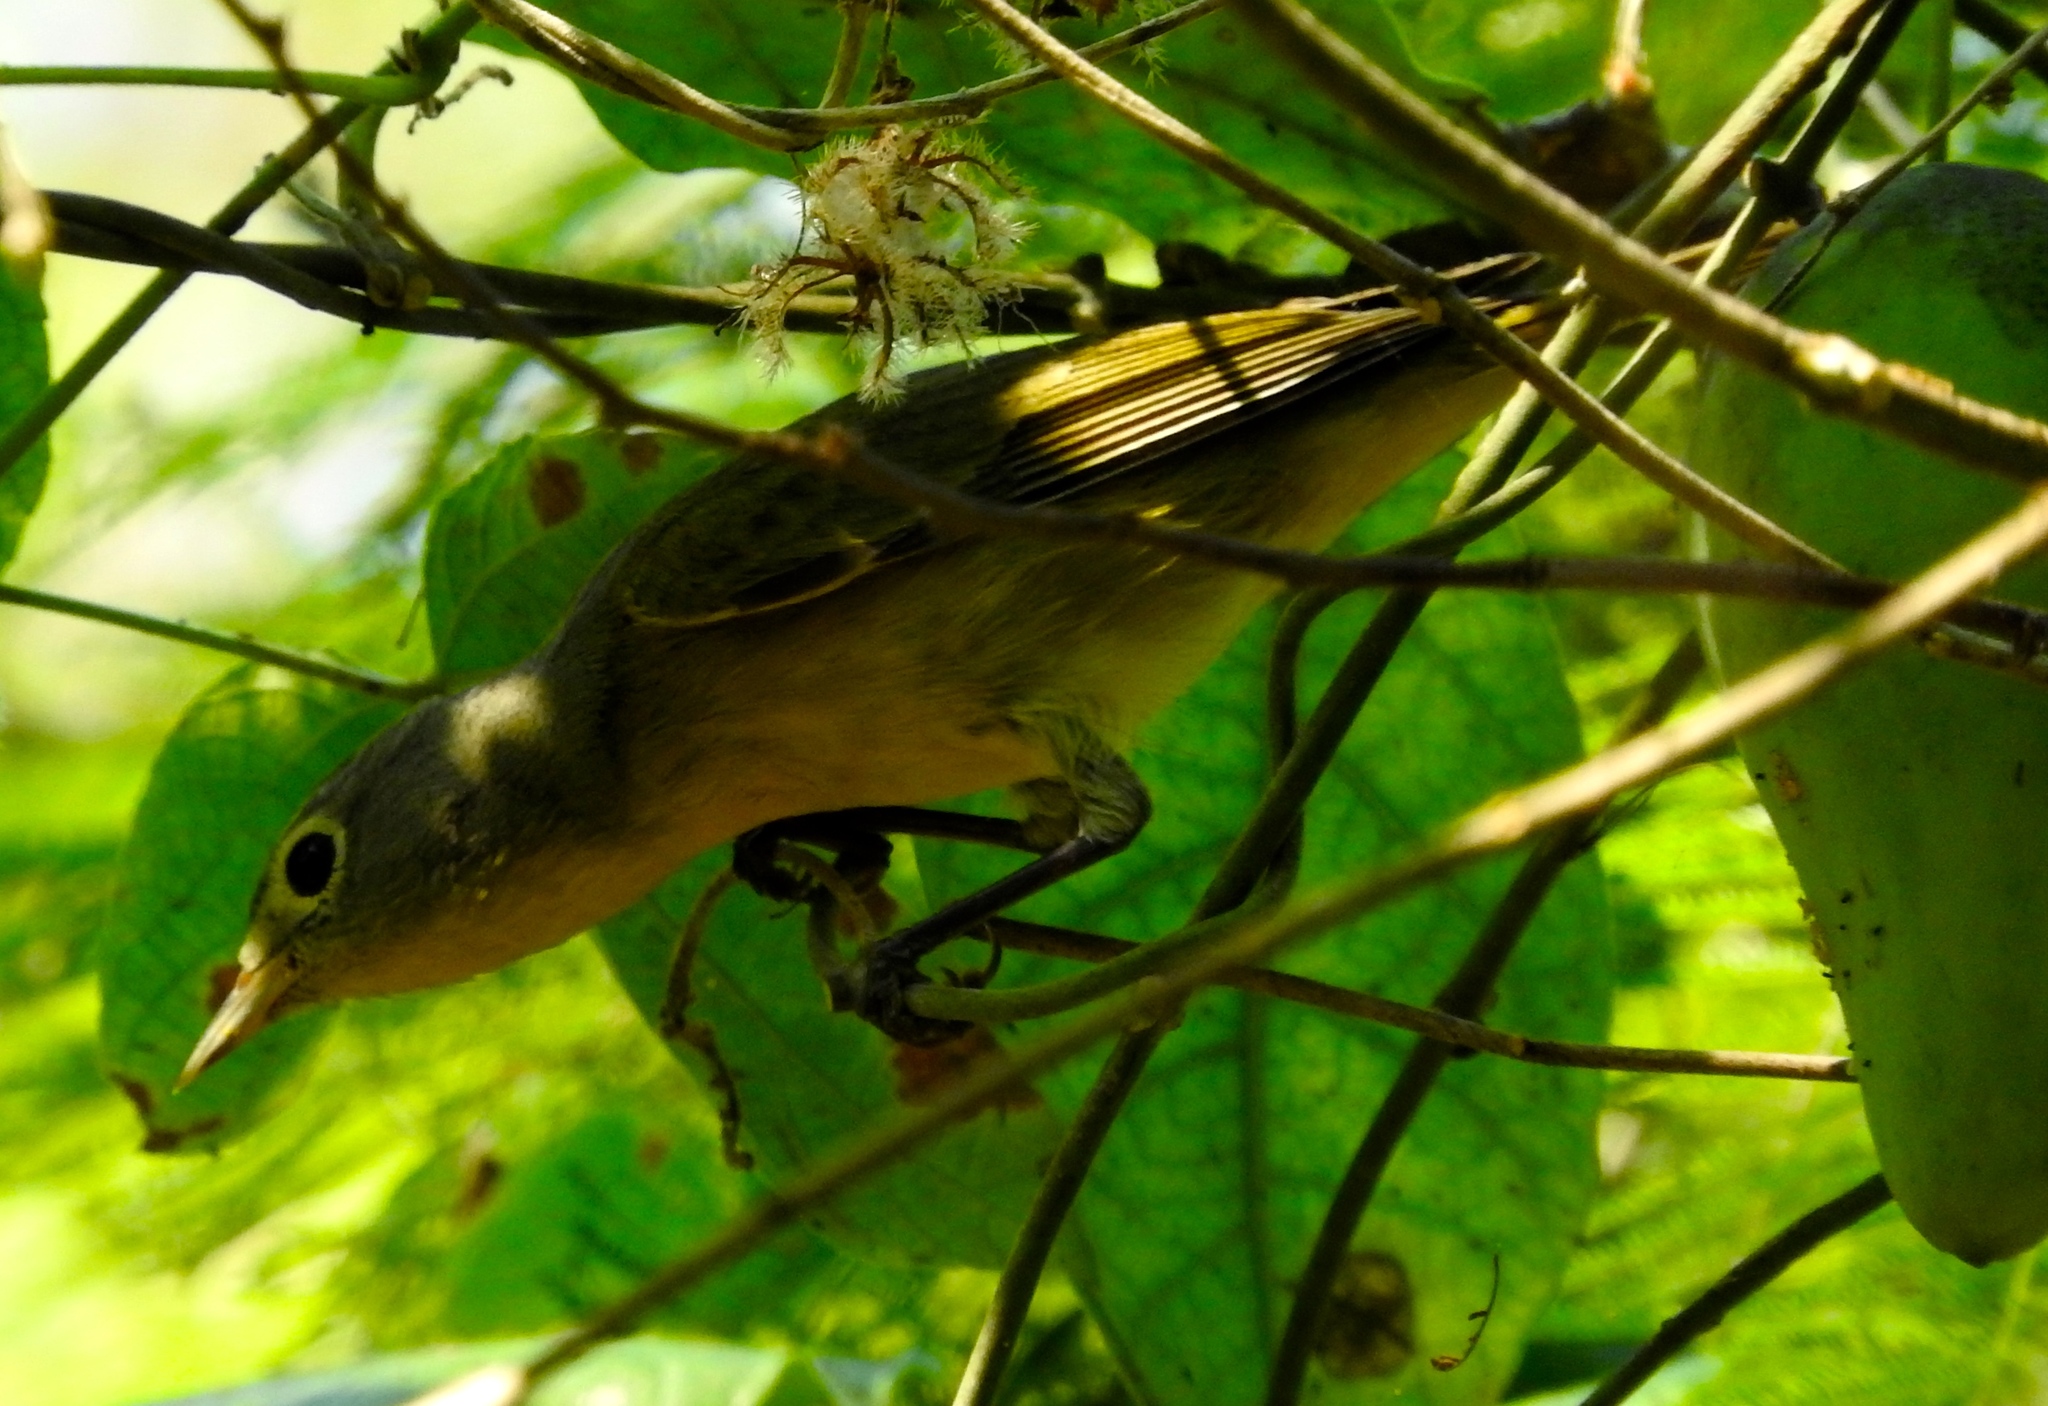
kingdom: Animalia
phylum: Chordata
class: Aves
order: Passeriformes
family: Parulidae
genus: Leiothlypis
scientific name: Leiothlypis ruficapilla
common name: Nashville warbler
